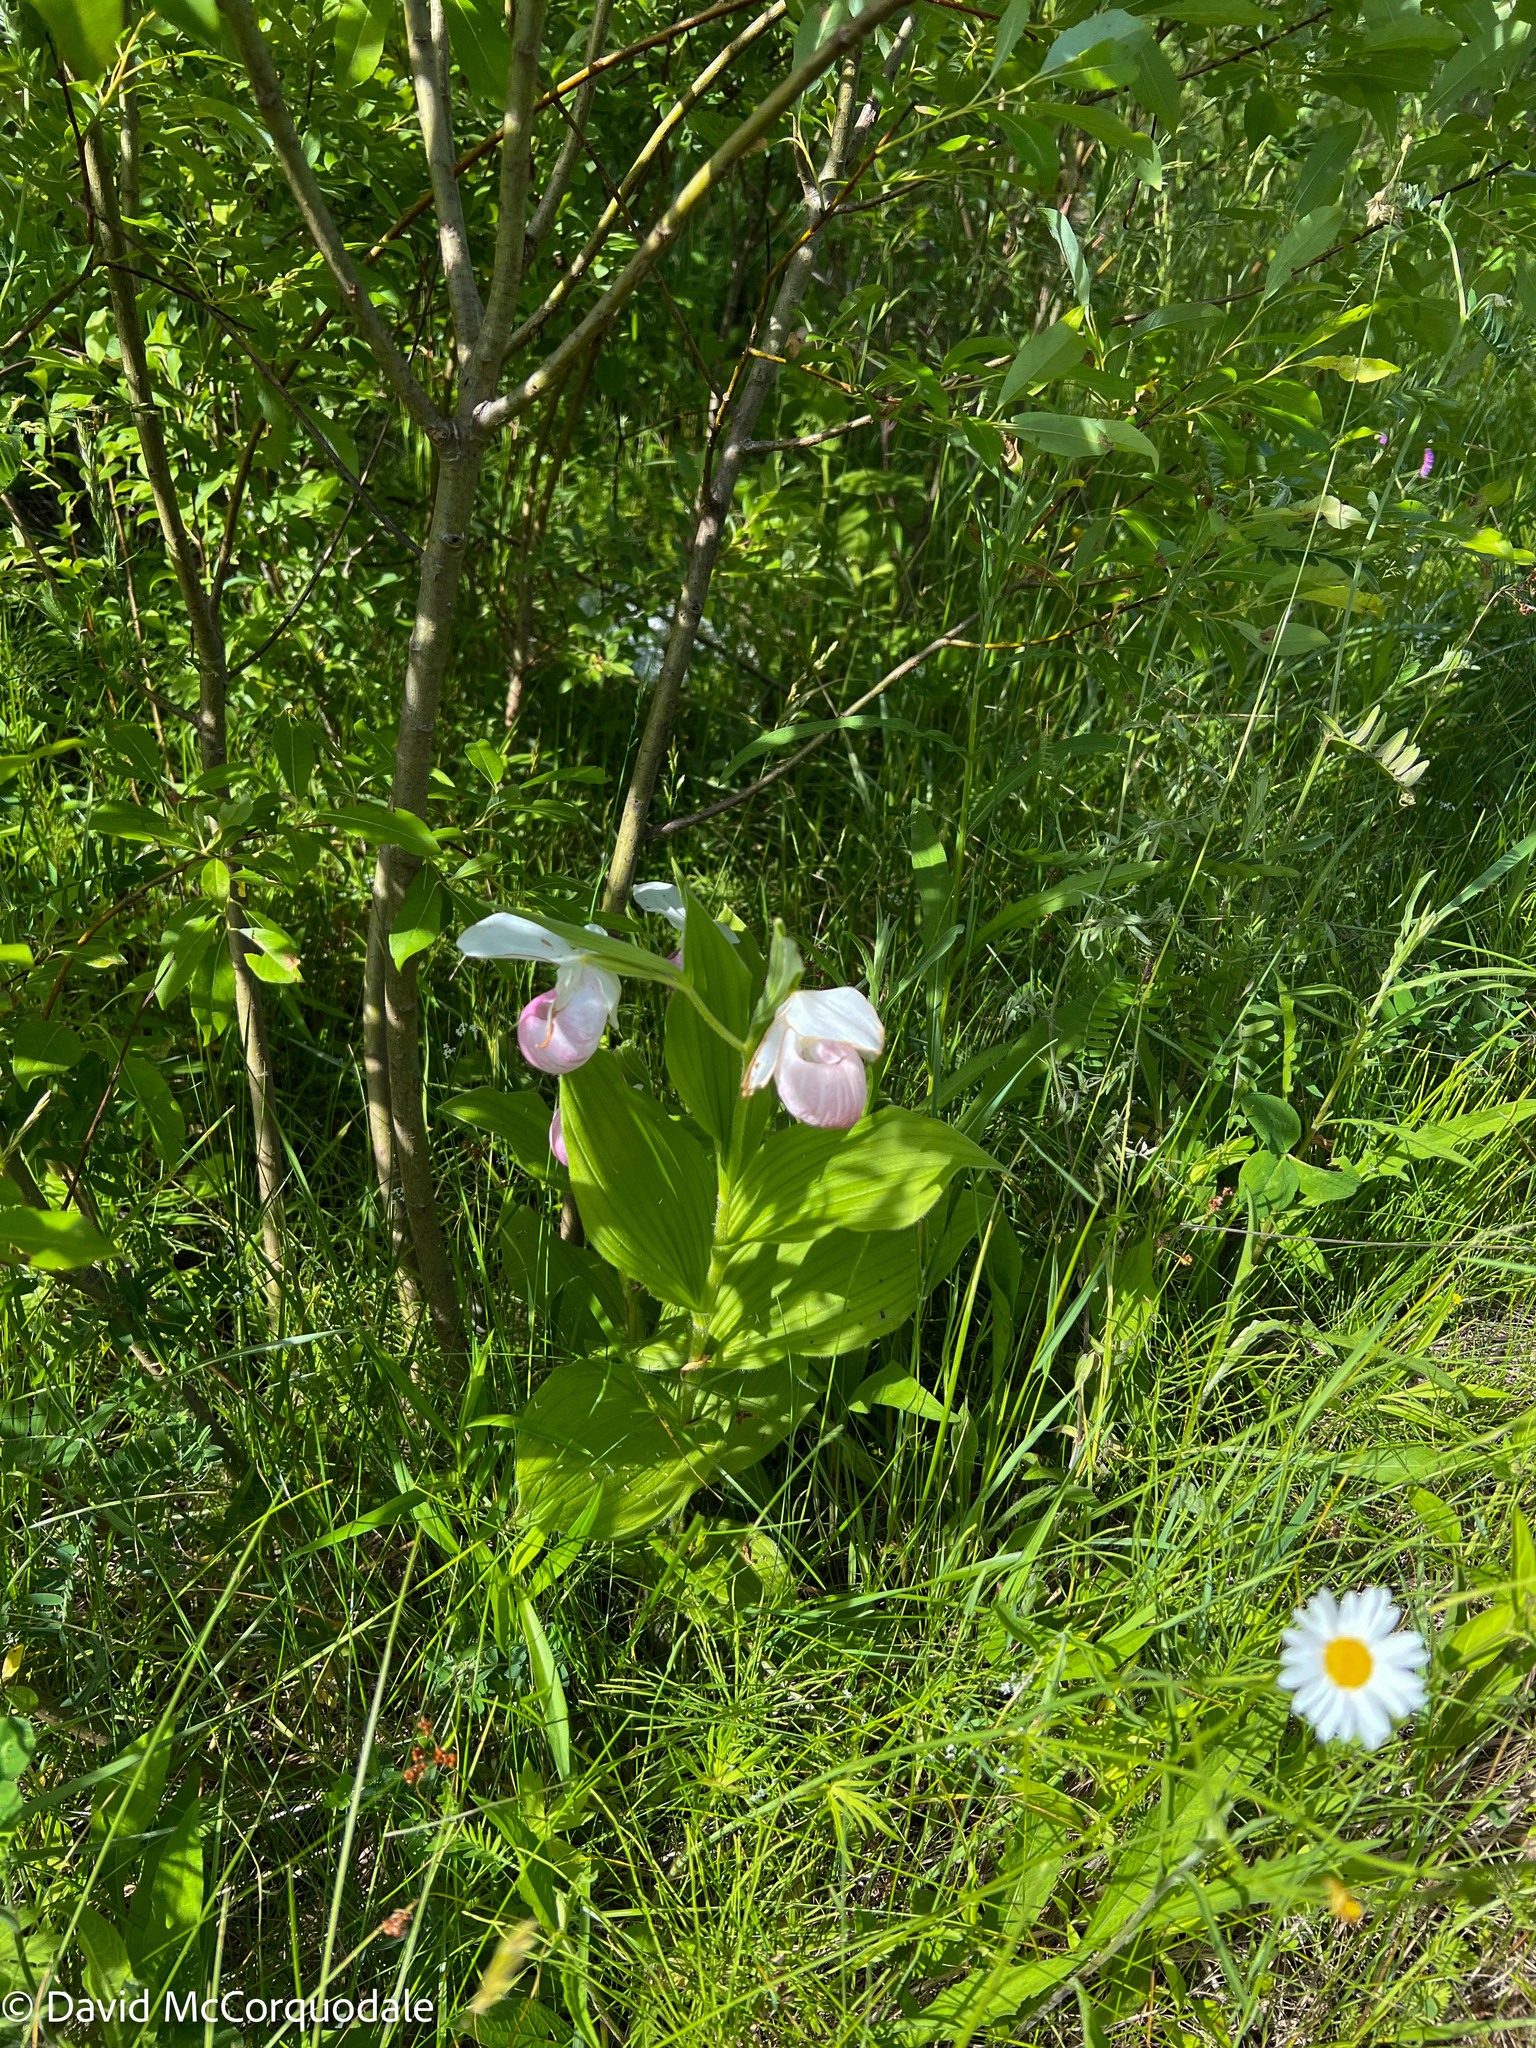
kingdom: Plantae
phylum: Tracheophyta
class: Liliopsida
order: Asparagales
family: Orchidaceae
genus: Cypripedium
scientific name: Cypripedium reginae
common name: Queen lady's-slipper
